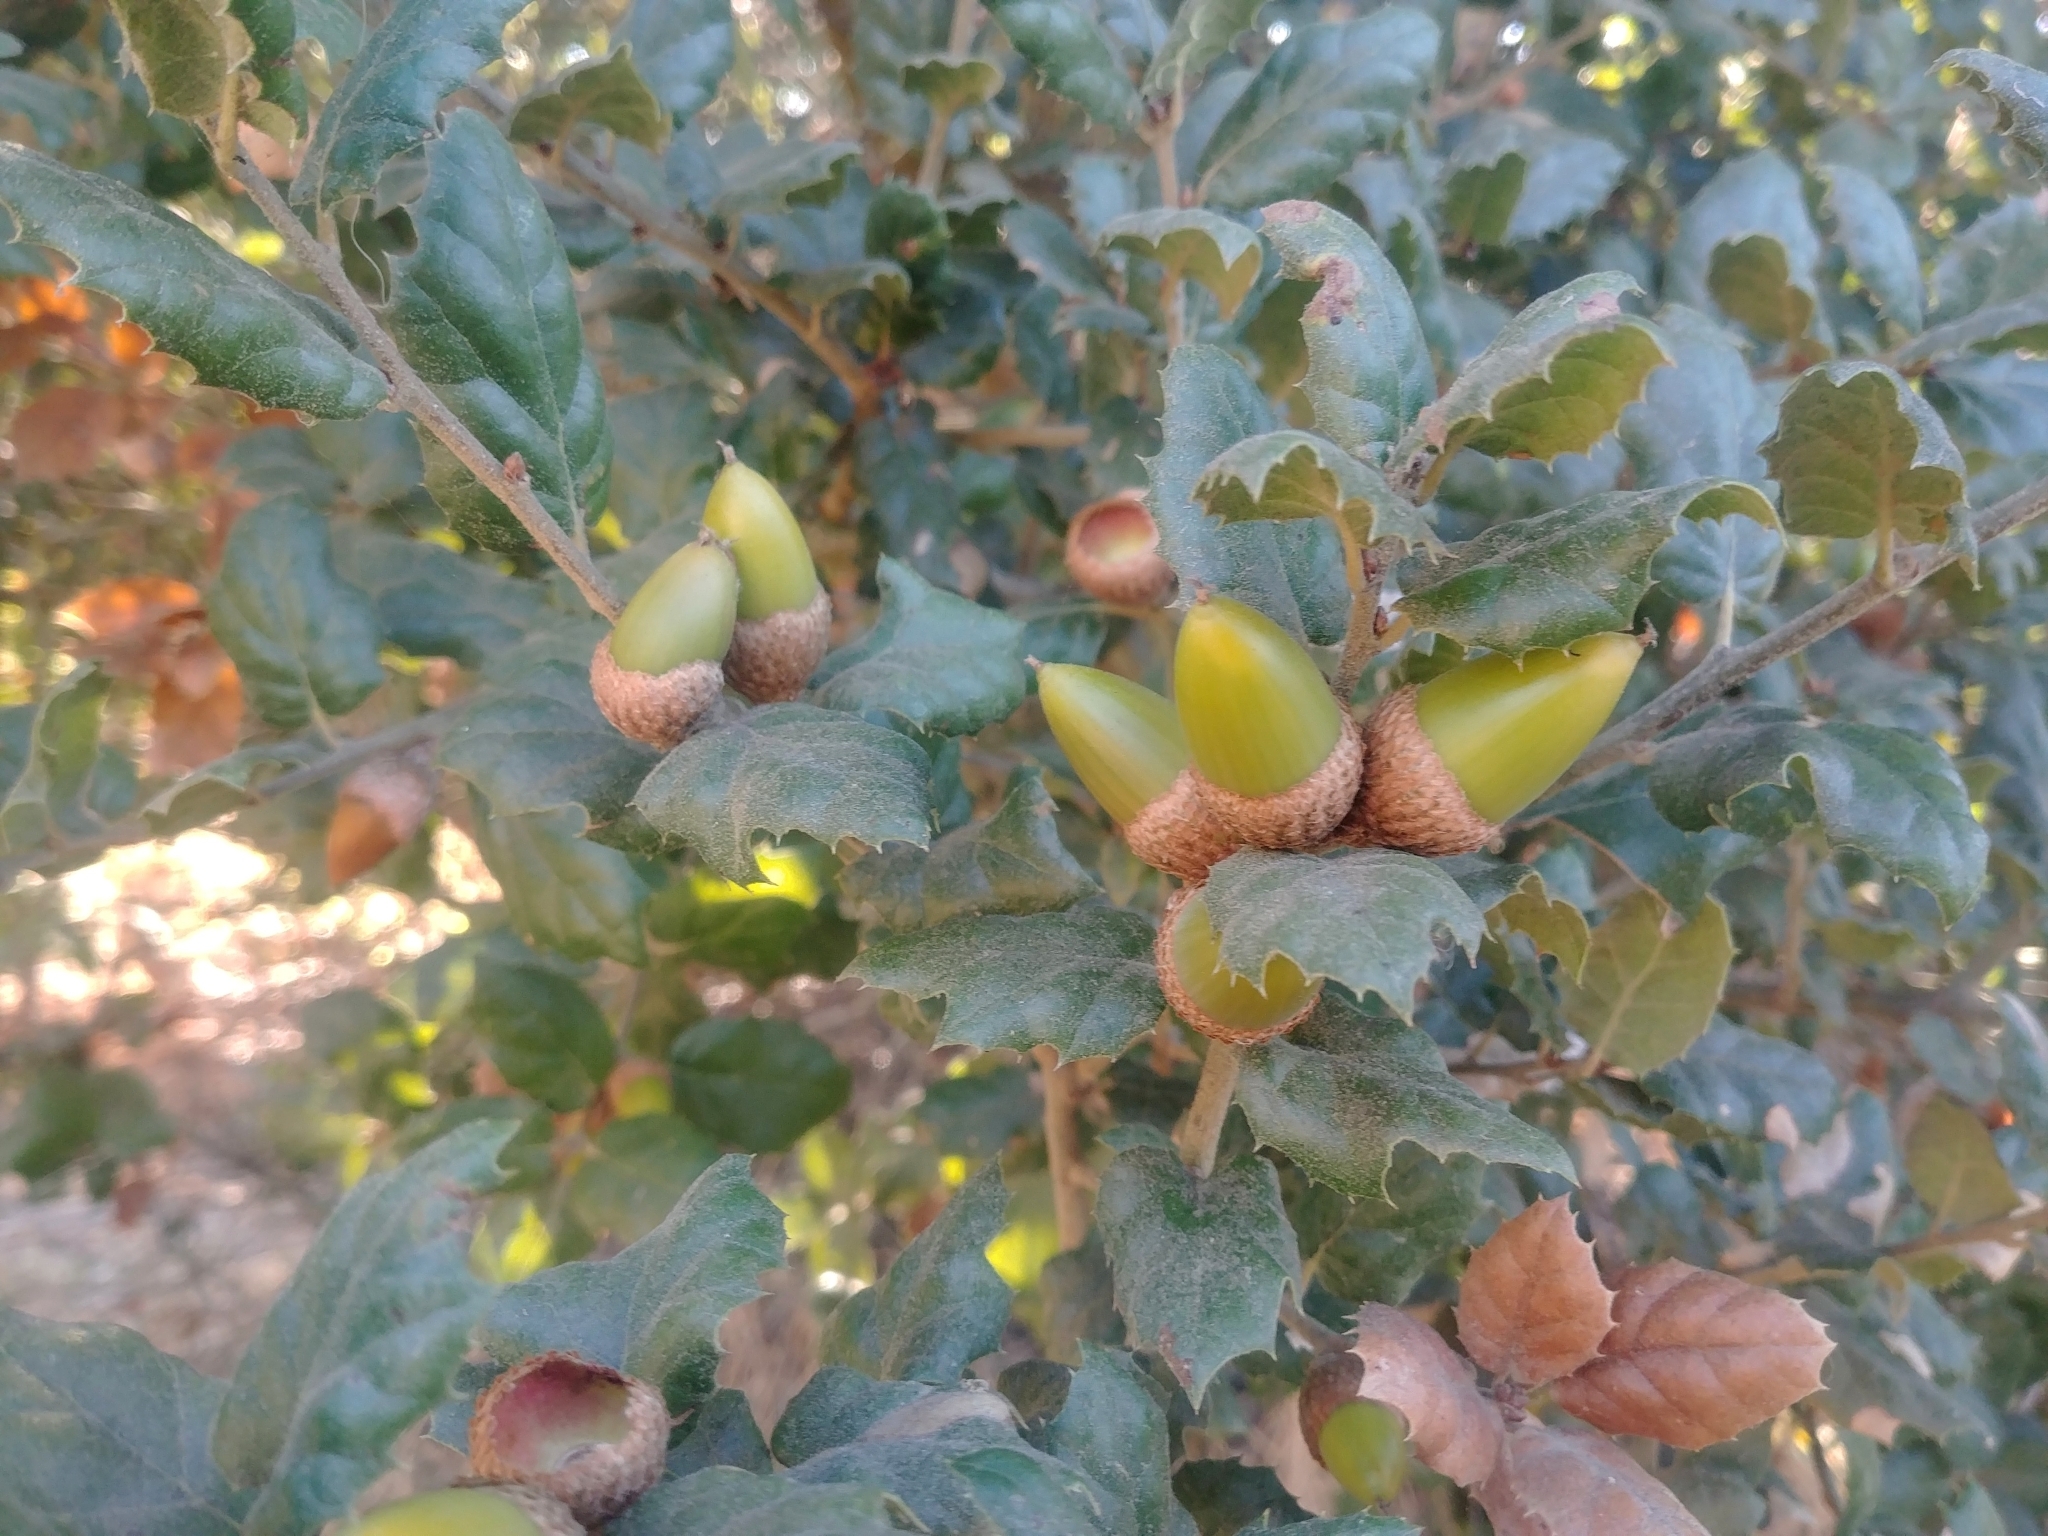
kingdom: Plantae
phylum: Tracheophyta
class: Magnoliopsida
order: Fagales
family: Fagaceae
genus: Quercus
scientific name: Quercus agrifolia
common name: California live oak
